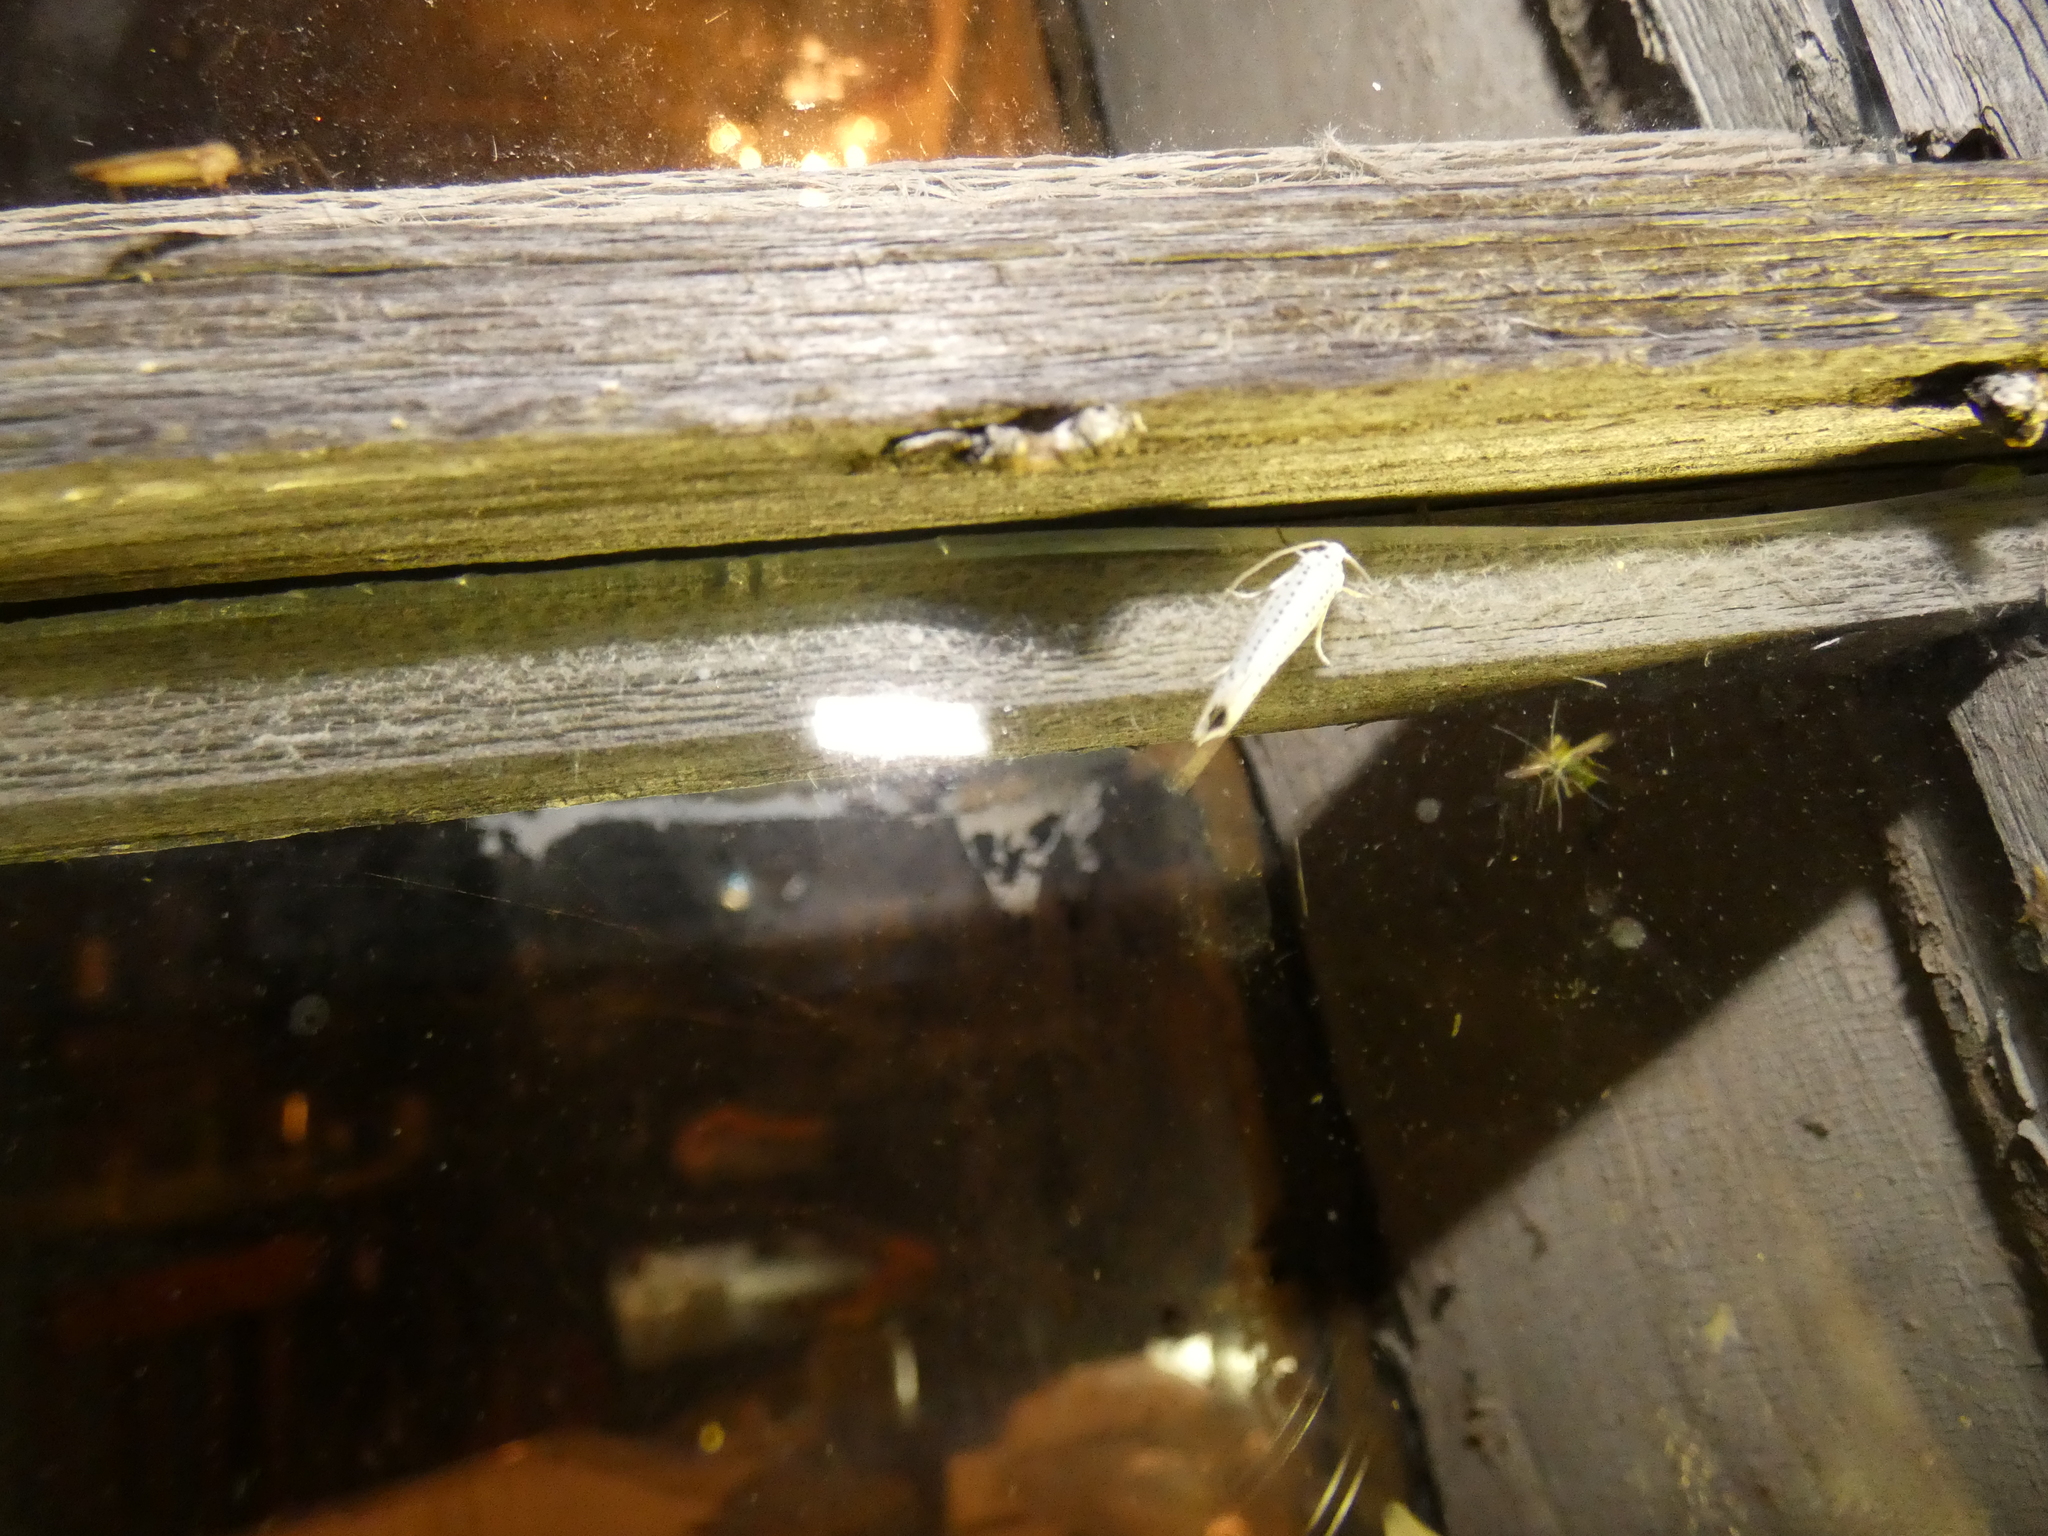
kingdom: Animalia
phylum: Arthropoda
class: Insecta
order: Lepidoptera
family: Yponomeutidae
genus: Yponomeuta
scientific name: Yponomeuta evonymella
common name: Bird-cherry ermine
